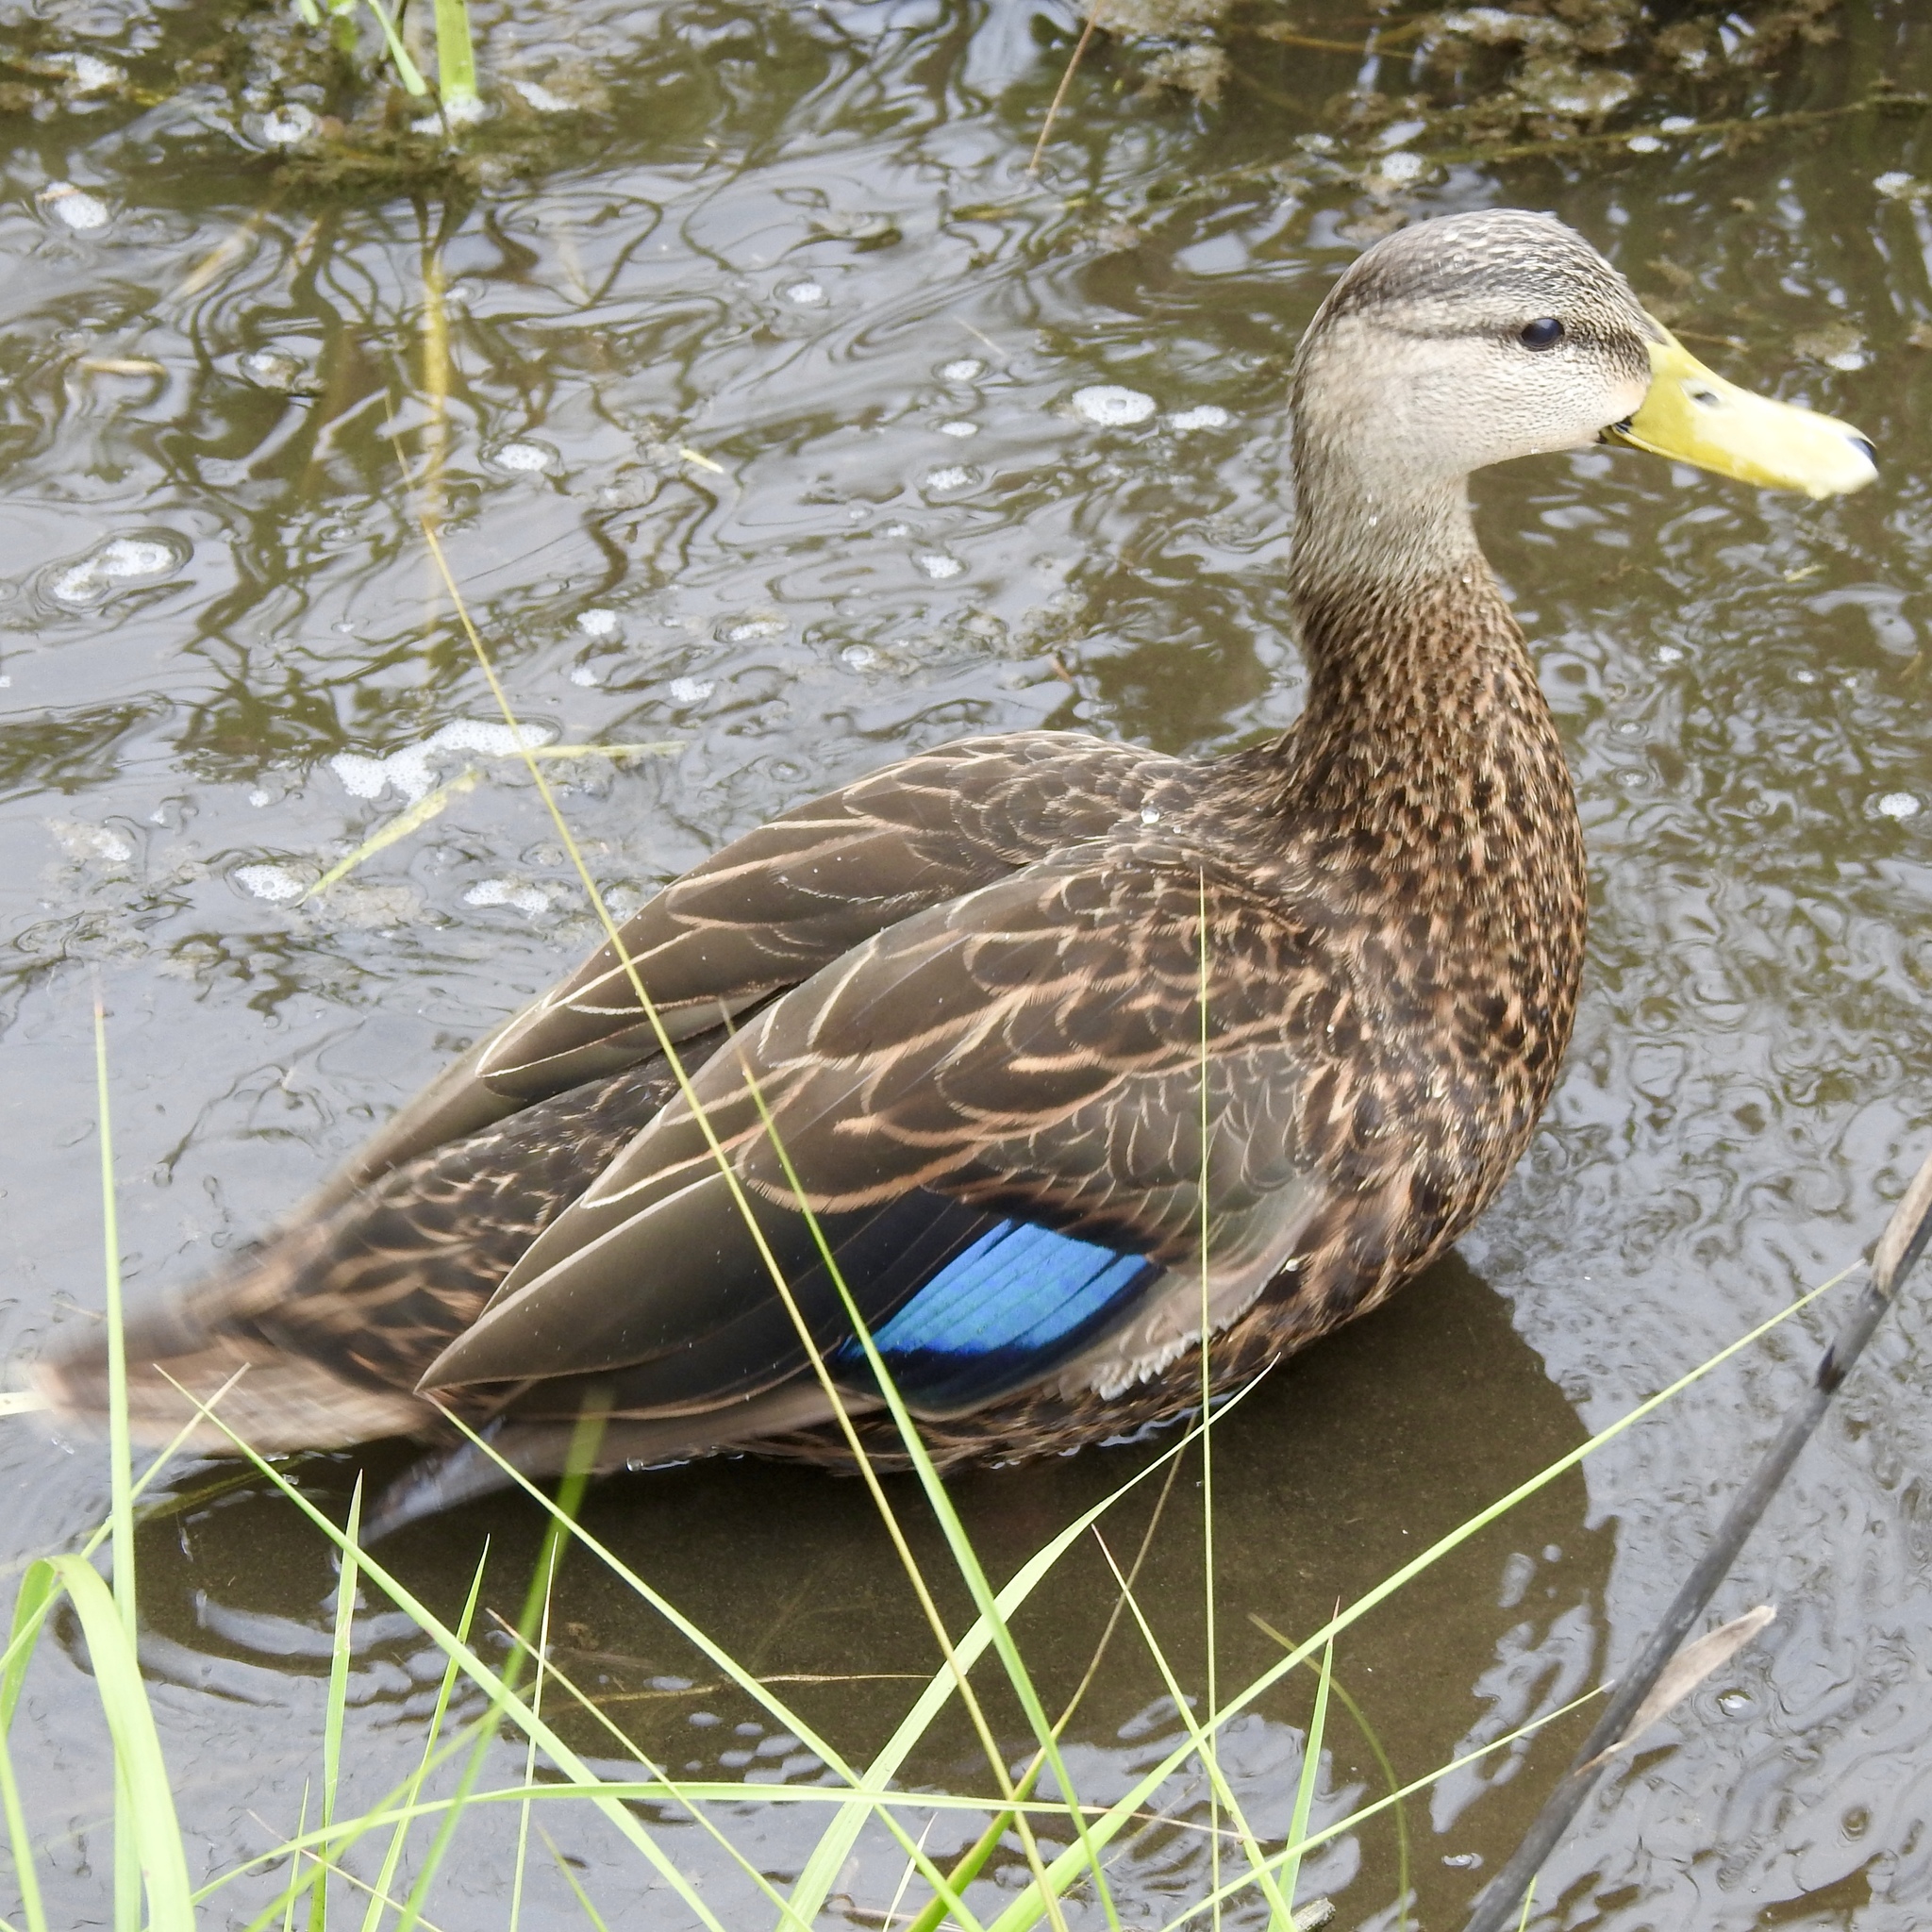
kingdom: Animalia
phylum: Chordata
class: Aves
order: Anseriformes
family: Anatidae
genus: Anas
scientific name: Anas fulvigula
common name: Mottled duck
